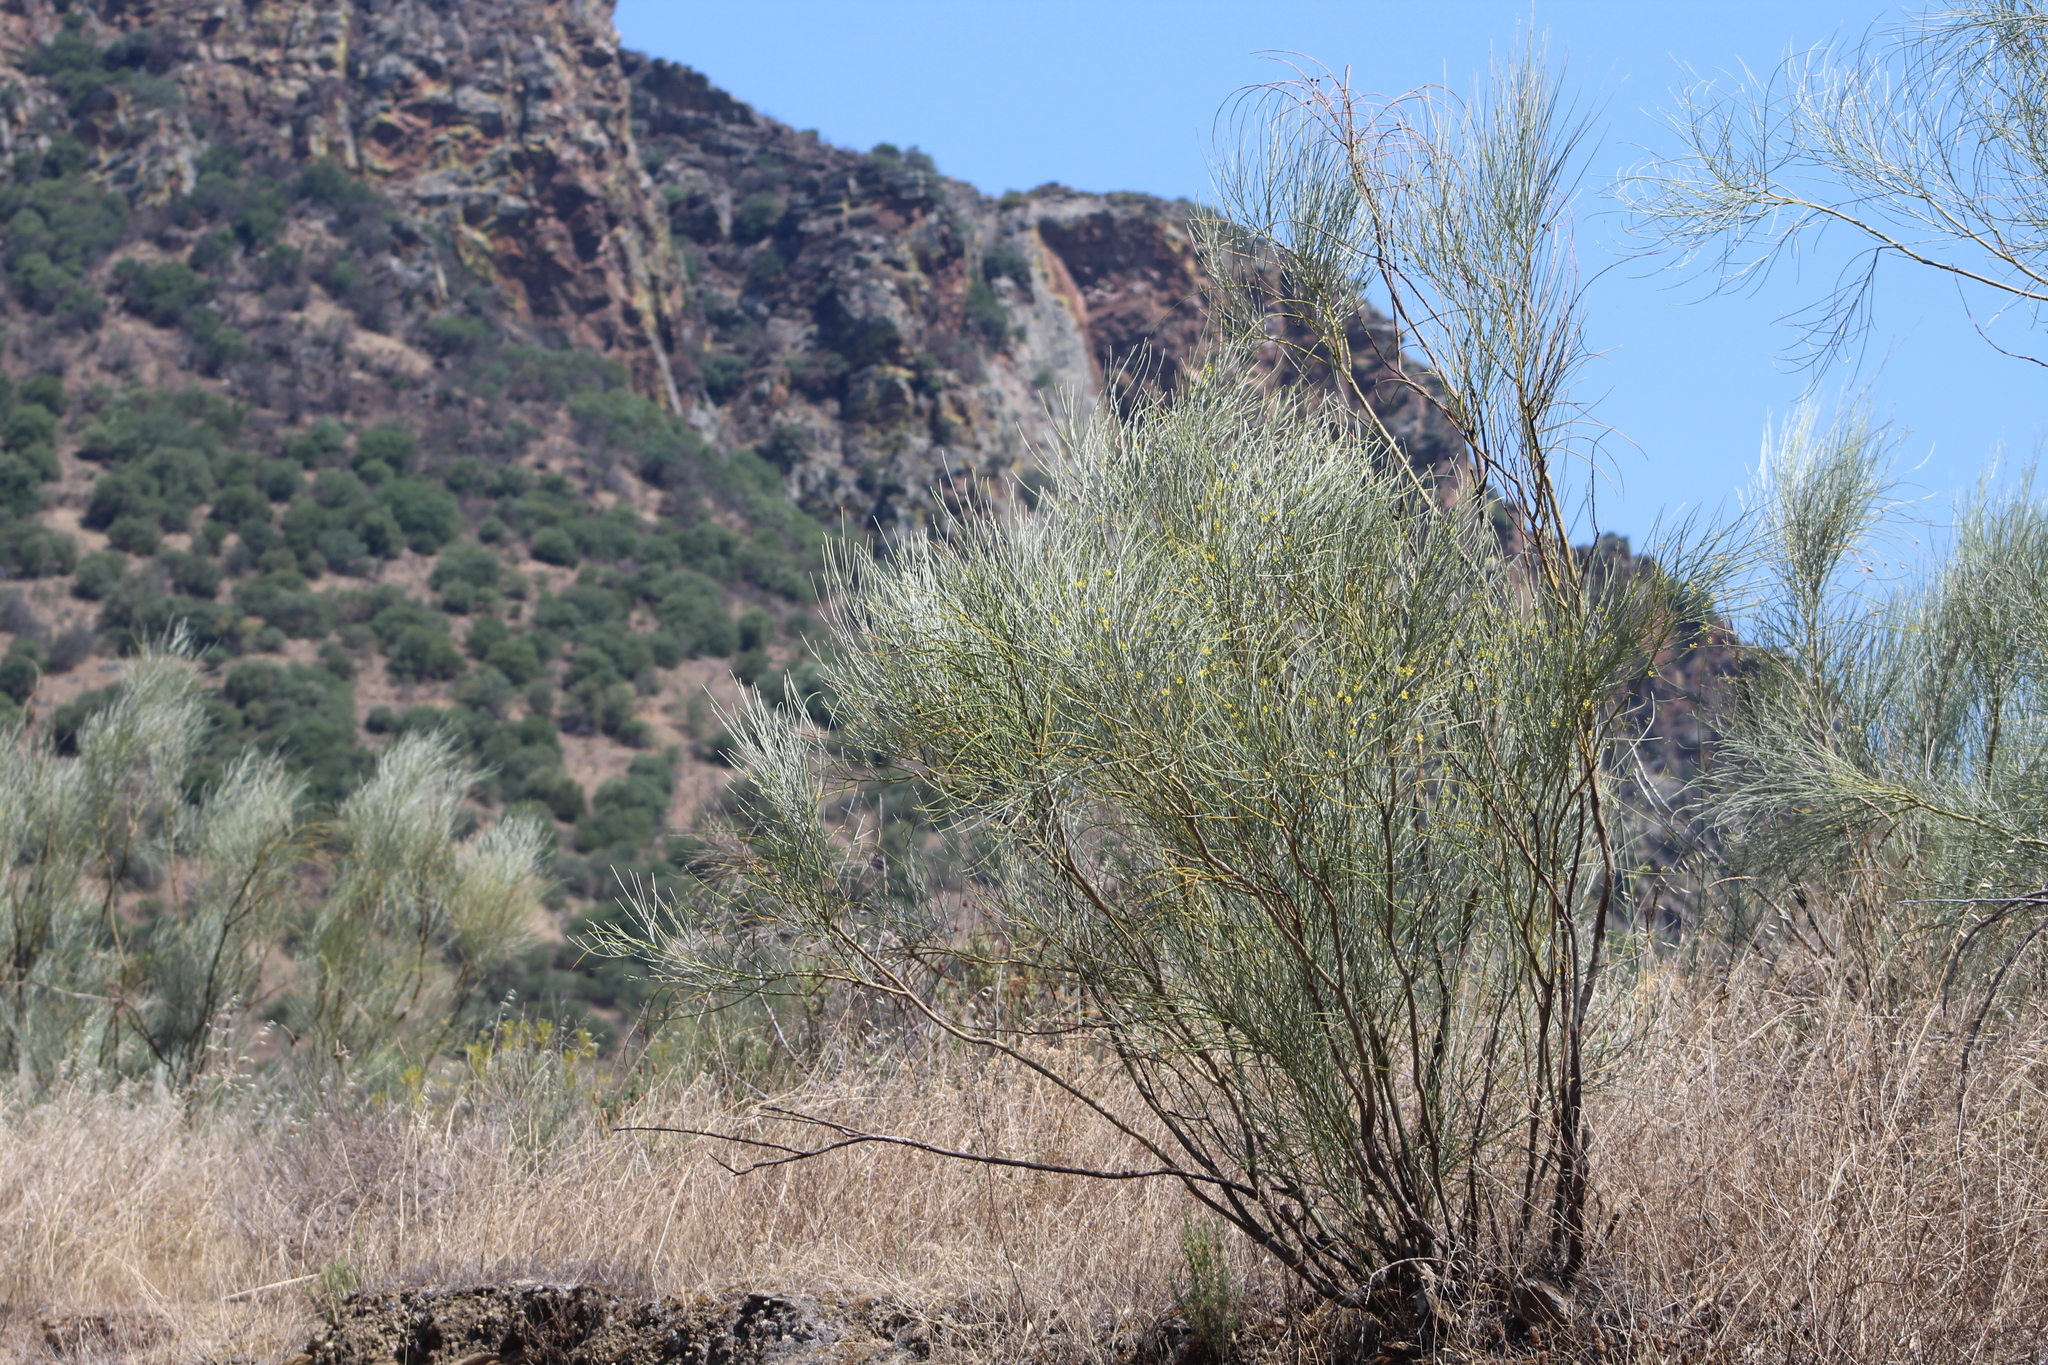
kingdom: Plantae
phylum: Tracheophyta
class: Magnoliopsida
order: Fabales
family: Fabaceae
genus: Retama
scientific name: Retama sphaerocarpa
